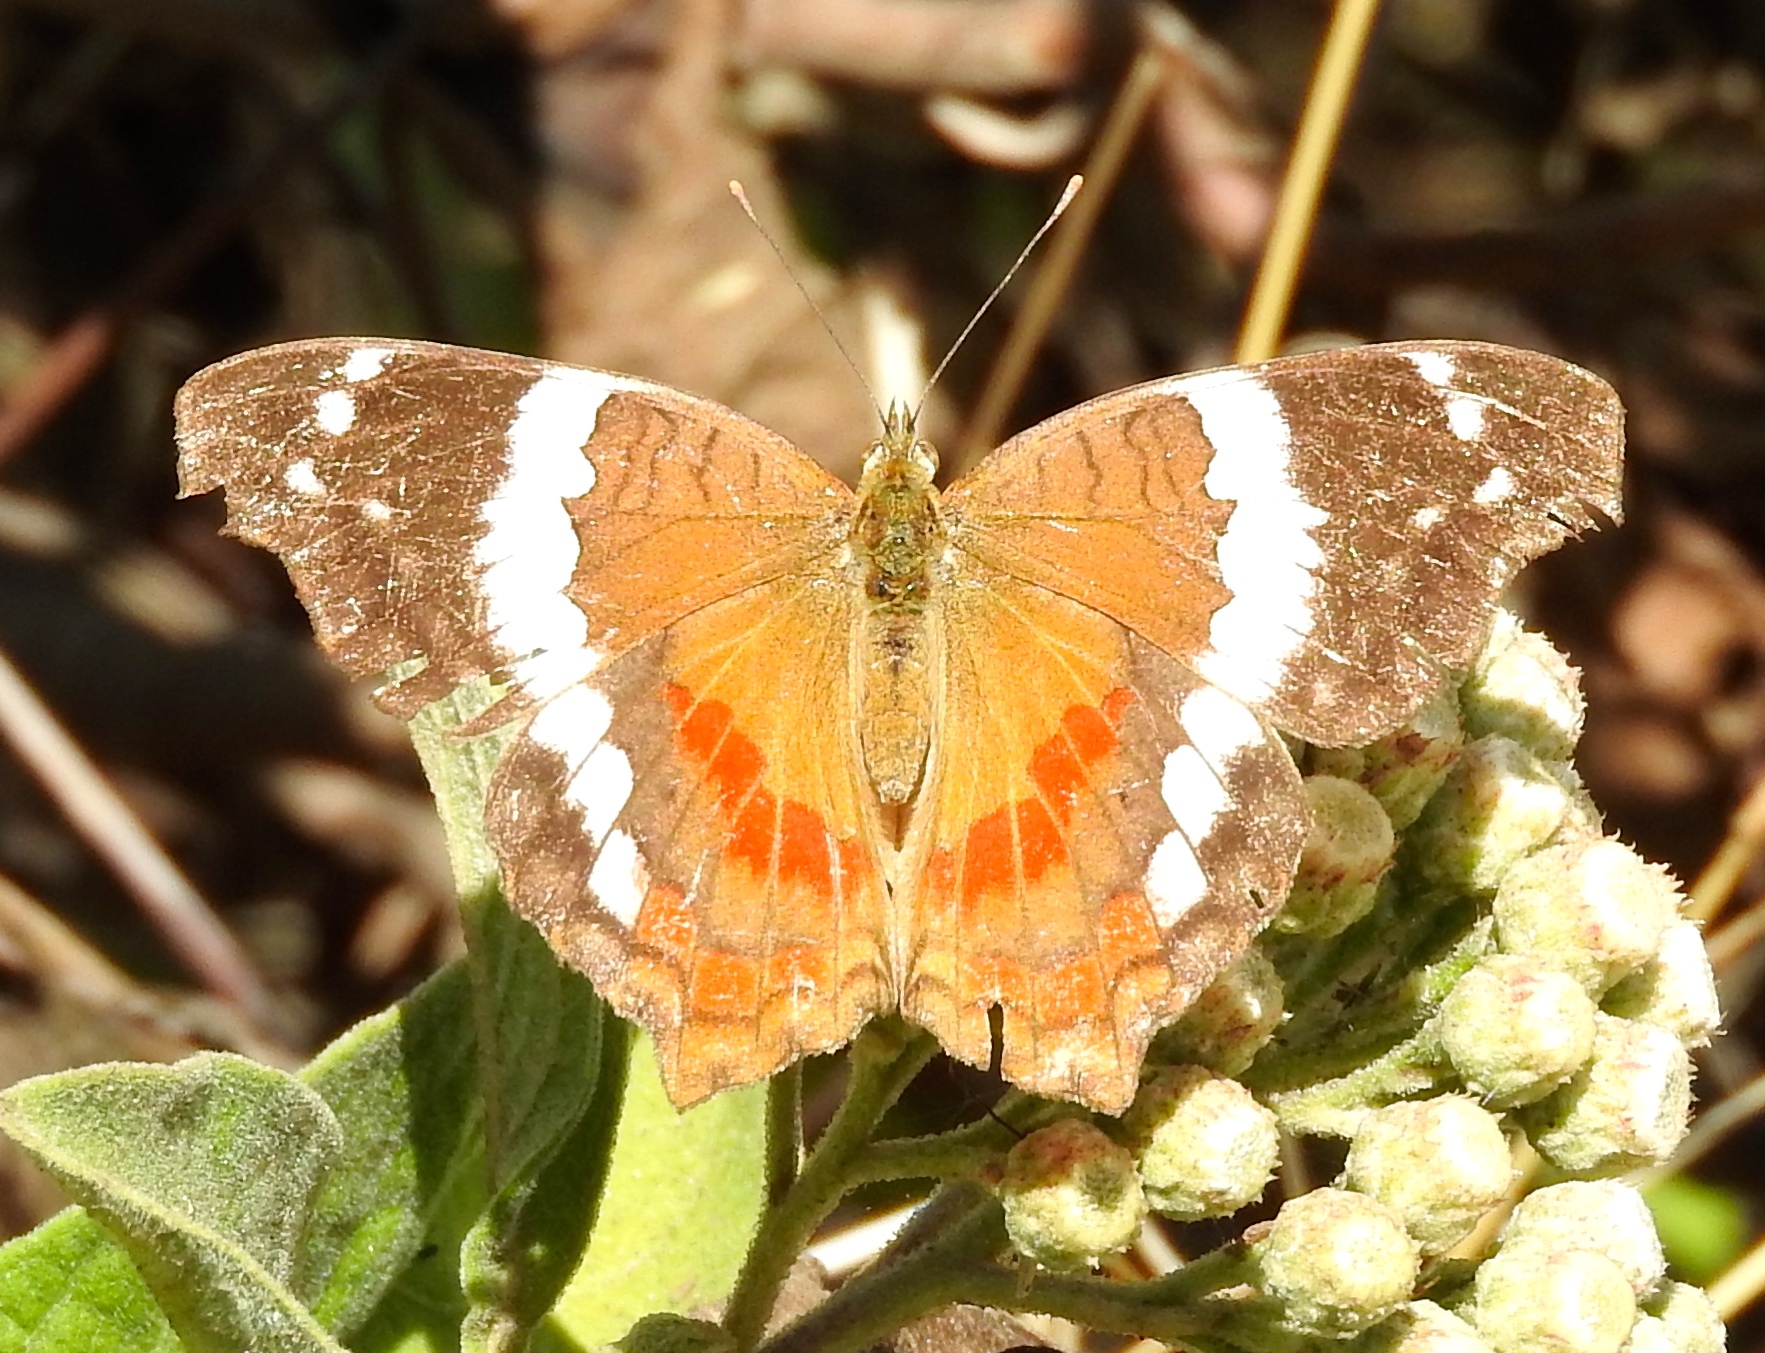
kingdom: Animalia
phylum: Arthropoda
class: Insecta
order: Lepidoptera
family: Nymphalidae
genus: Anartia
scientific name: Anartia fatima
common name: Banded peacock
